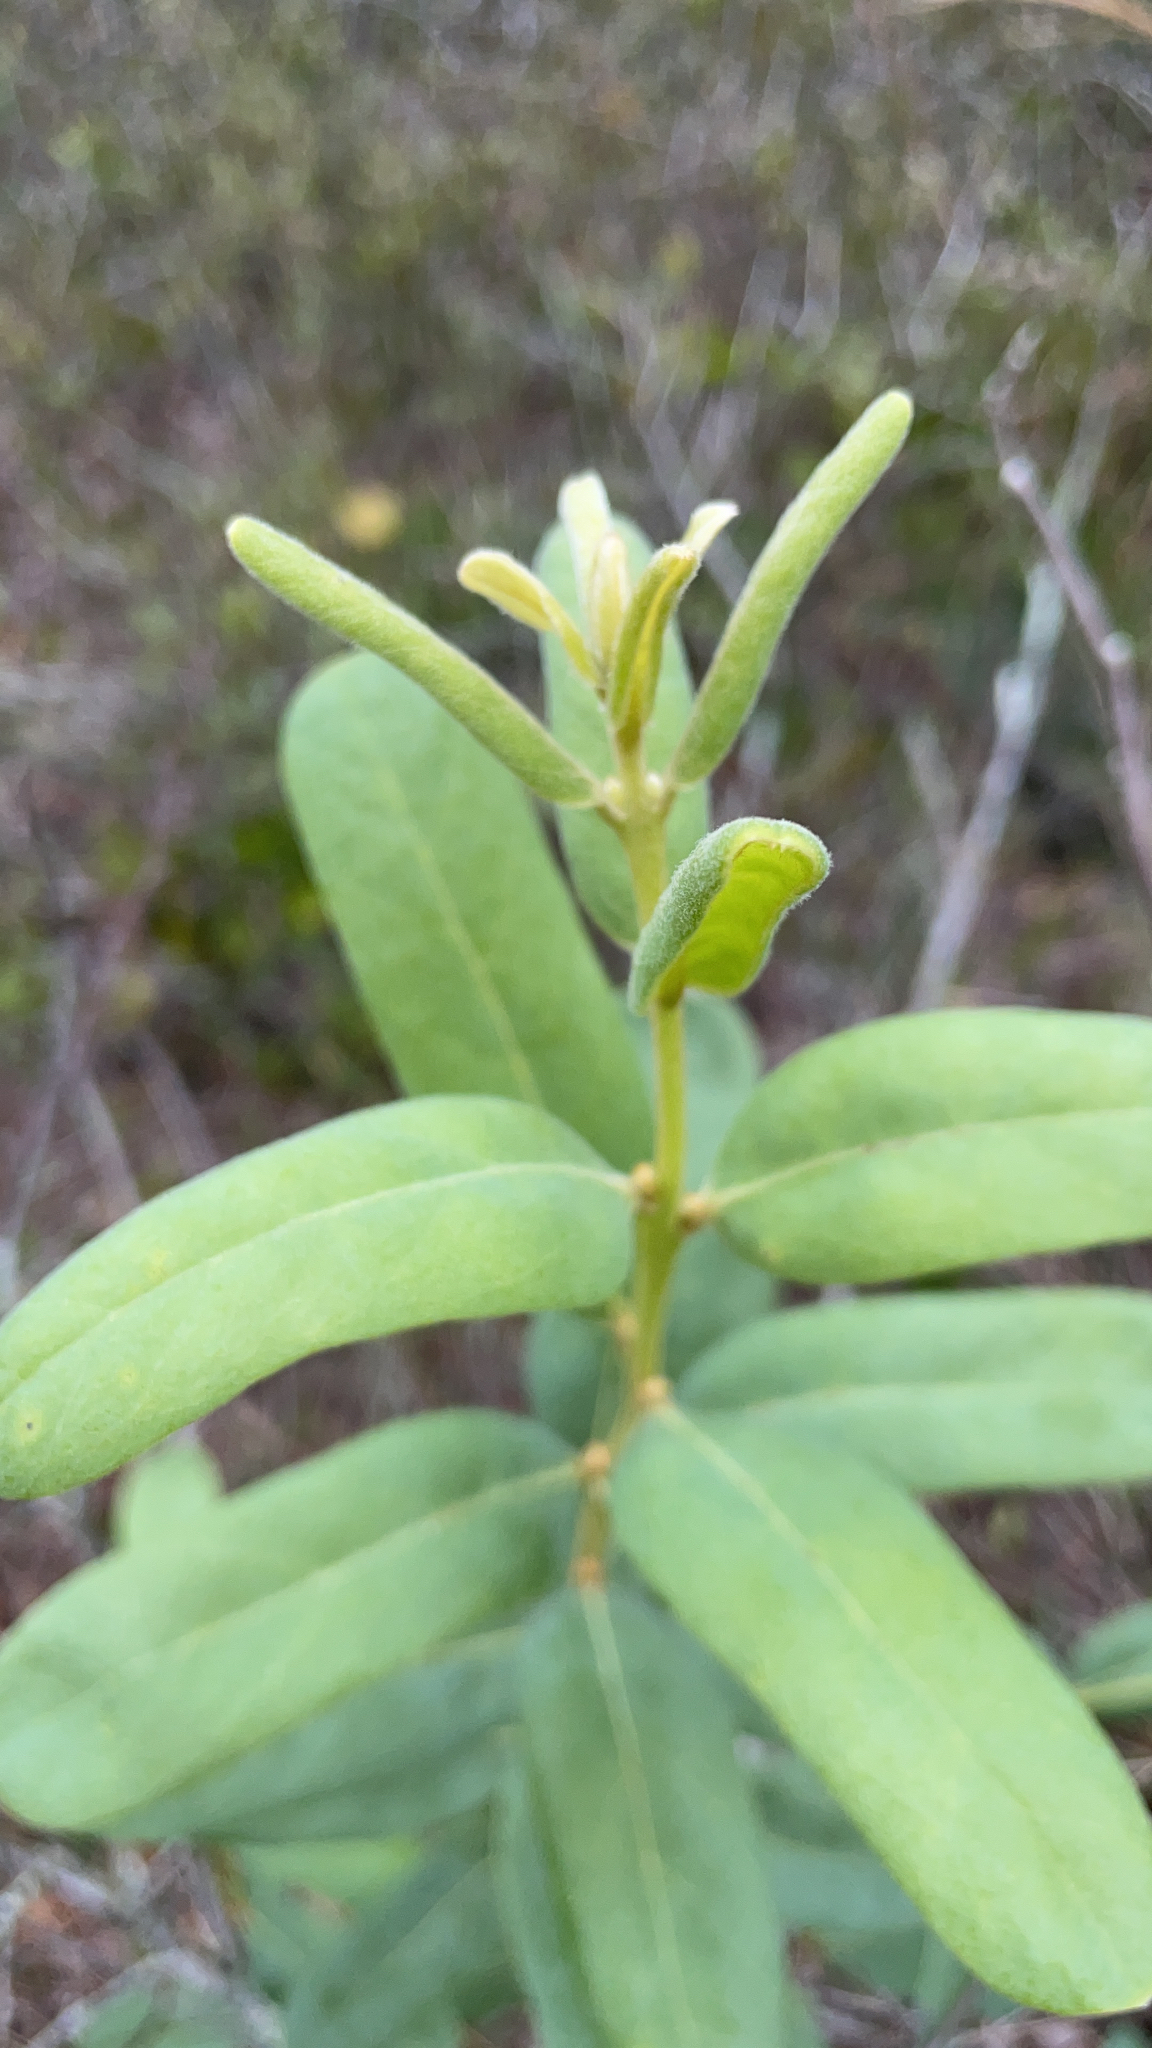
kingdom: Plantae
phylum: Tracheophyta
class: Liliopsida
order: Poales
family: Eriocaulaceae
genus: Syngonanthus
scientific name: Syngonanthus flavidulus
